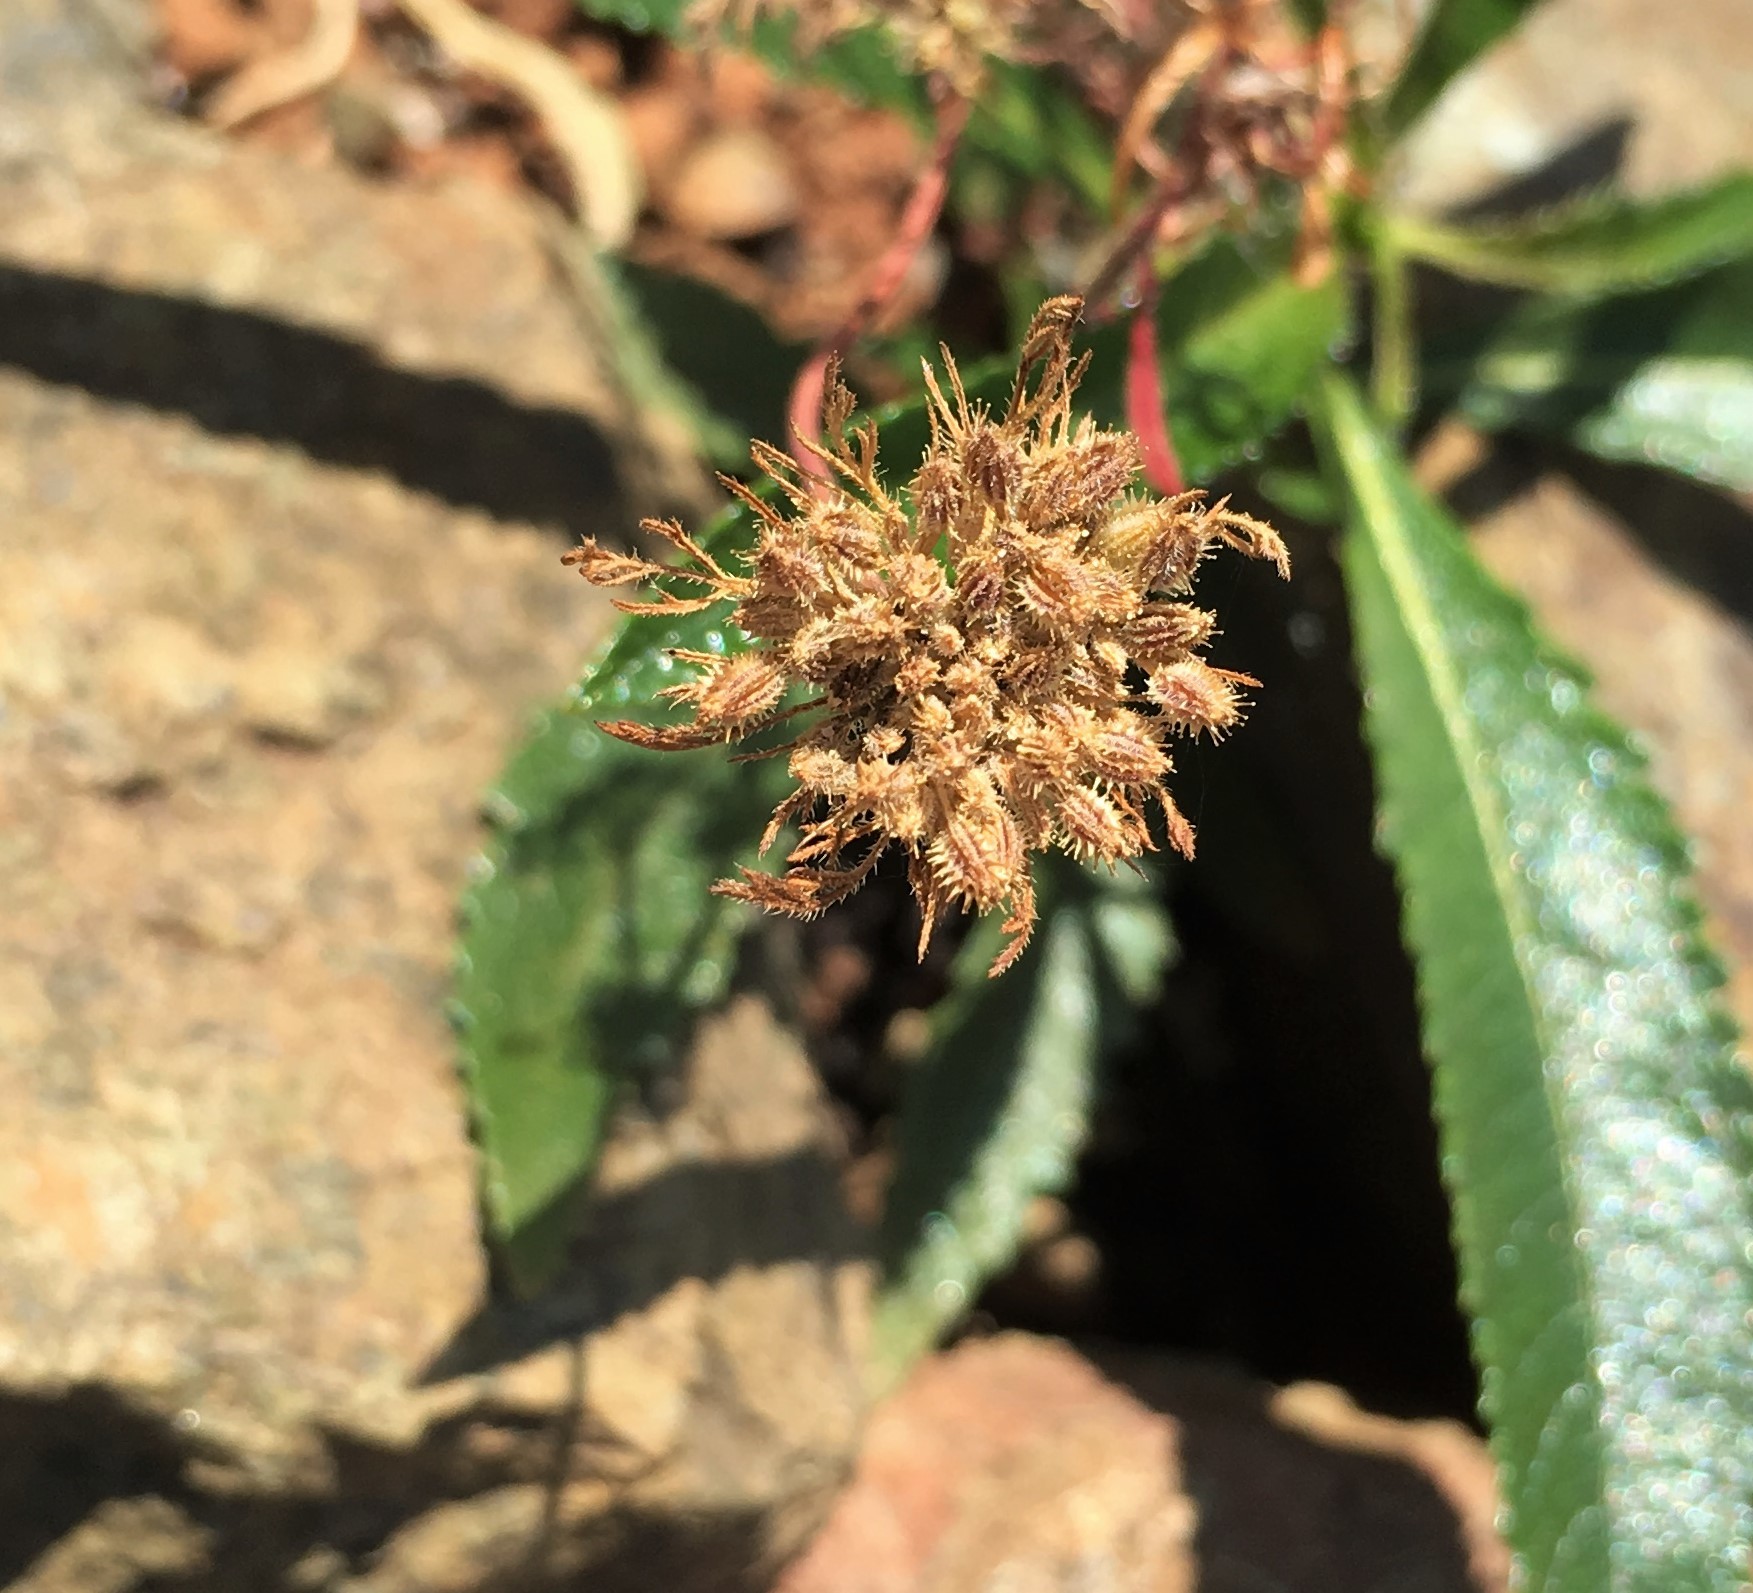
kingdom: Plantae
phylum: Tracheophyta
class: Magnoliopsida
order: Apiales
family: Apiaceae
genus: Daucus
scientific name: Daucus pusillus
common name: Southwest wild carrot
